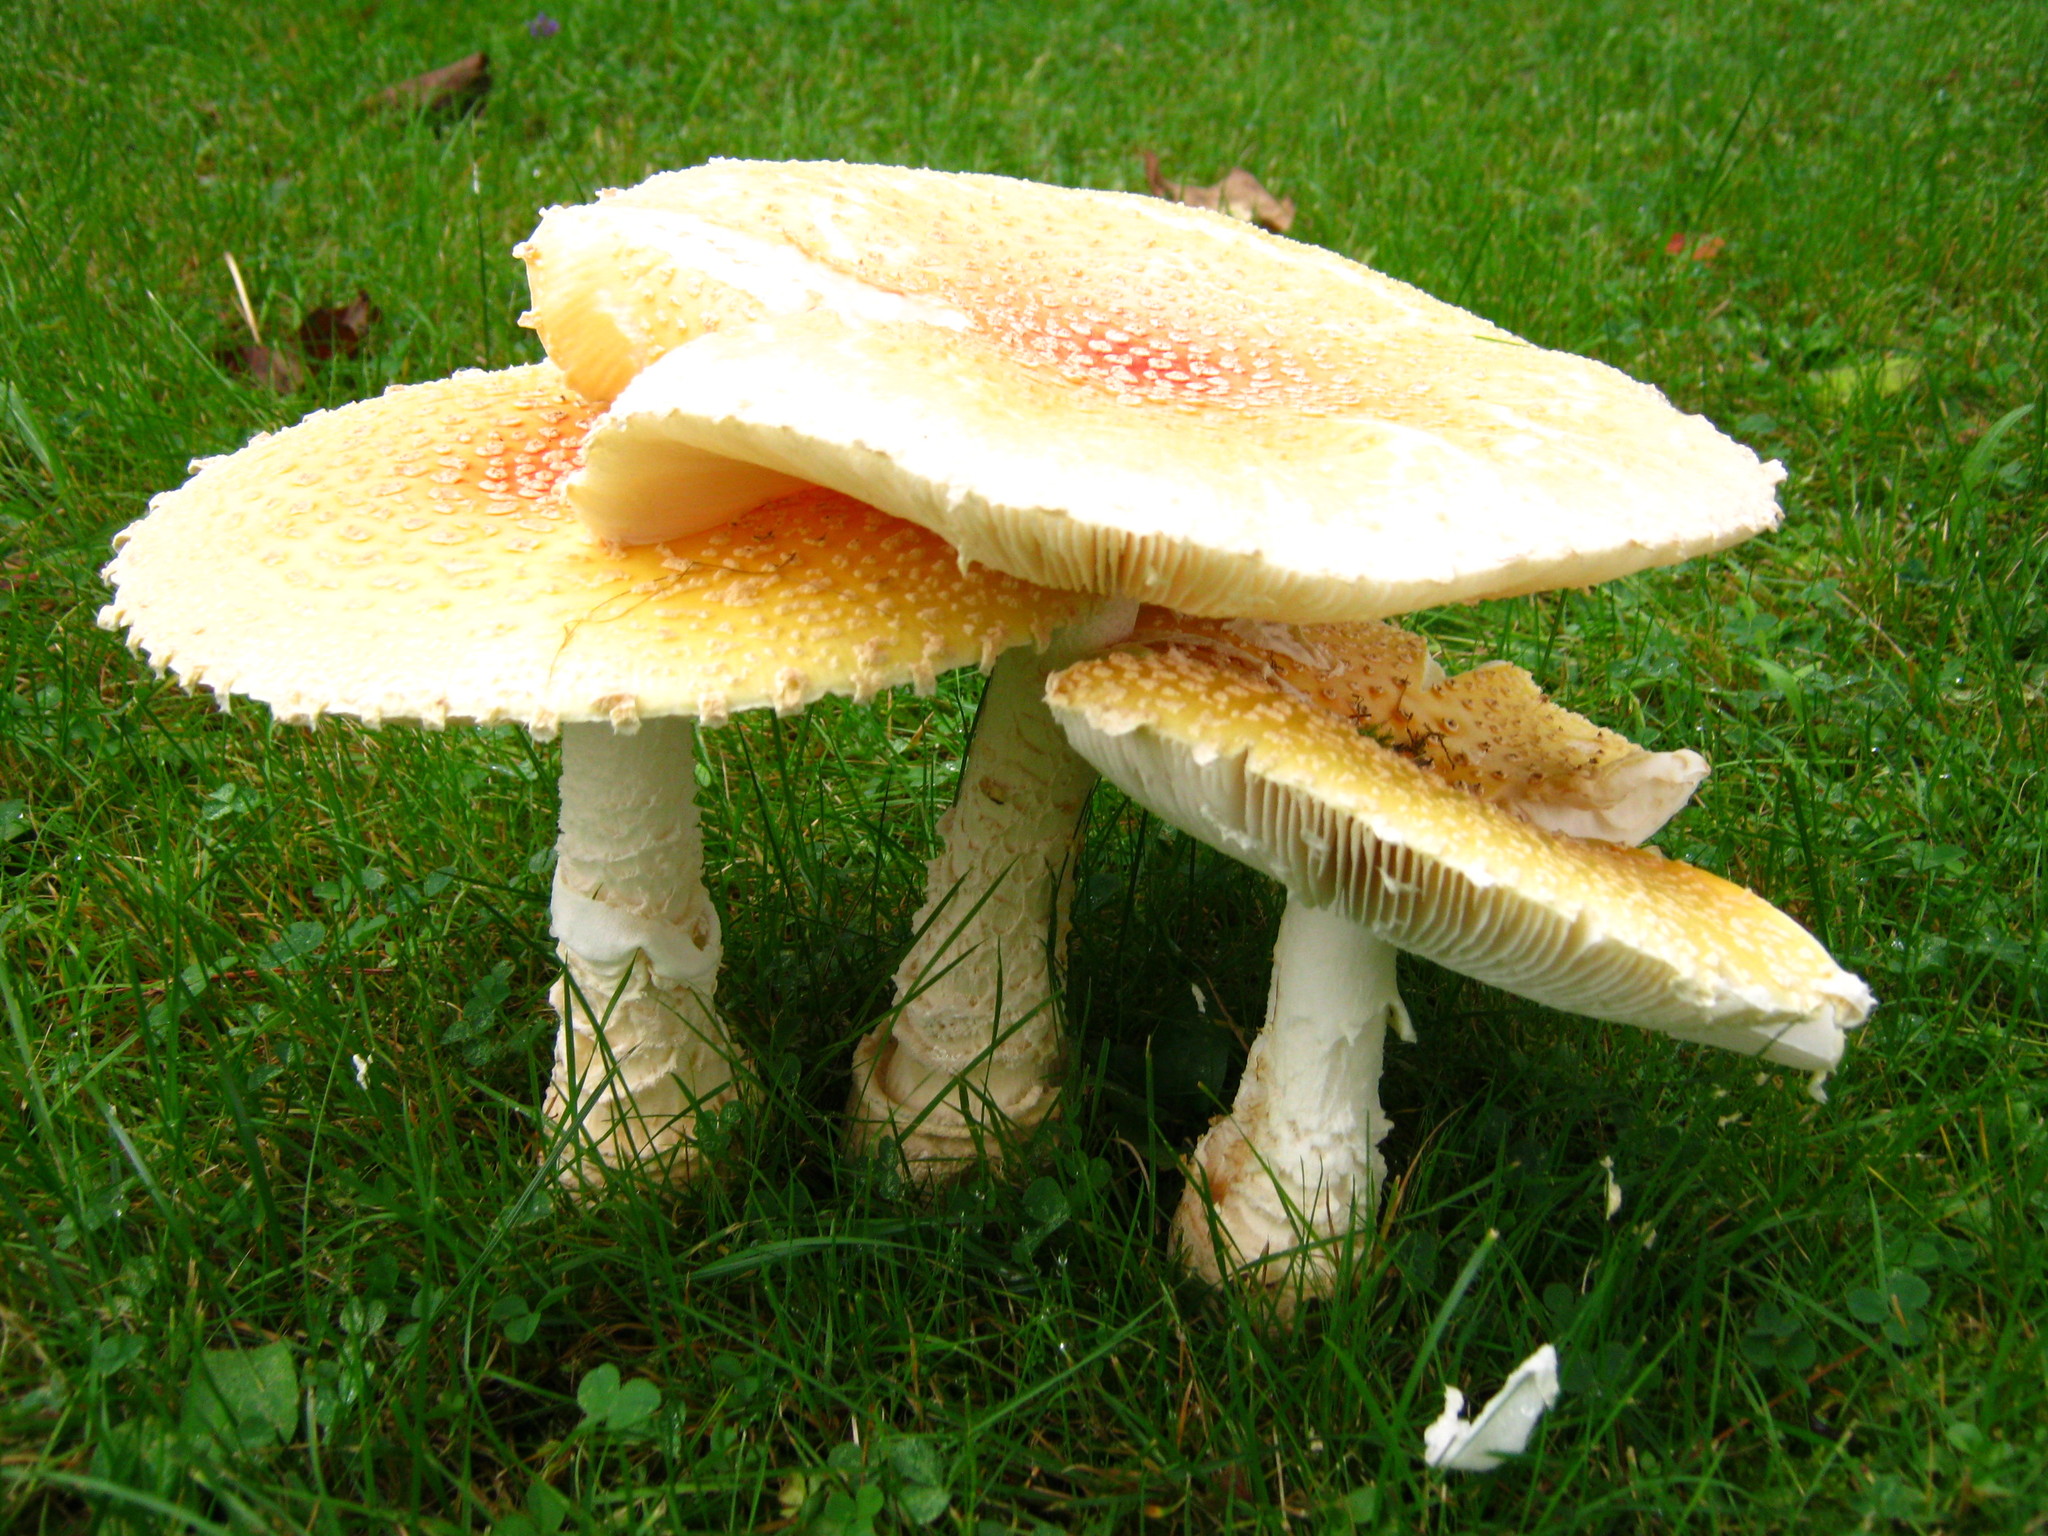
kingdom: Fungi
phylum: Basidiomycota
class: Agaricomycetes
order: Agaricales
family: Amanitaceae
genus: Amanita
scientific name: Amanita muscaria
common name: Fly agaric
